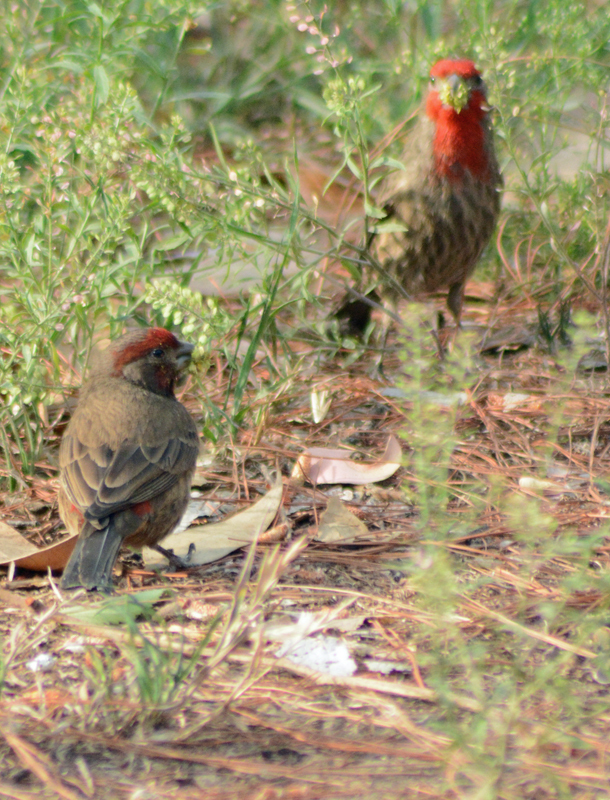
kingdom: Animalia
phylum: Chordata
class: Aves
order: Passeriformes
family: Fringillidae
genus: Haemorhous
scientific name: Haemorhous mexicanus
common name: House finch
